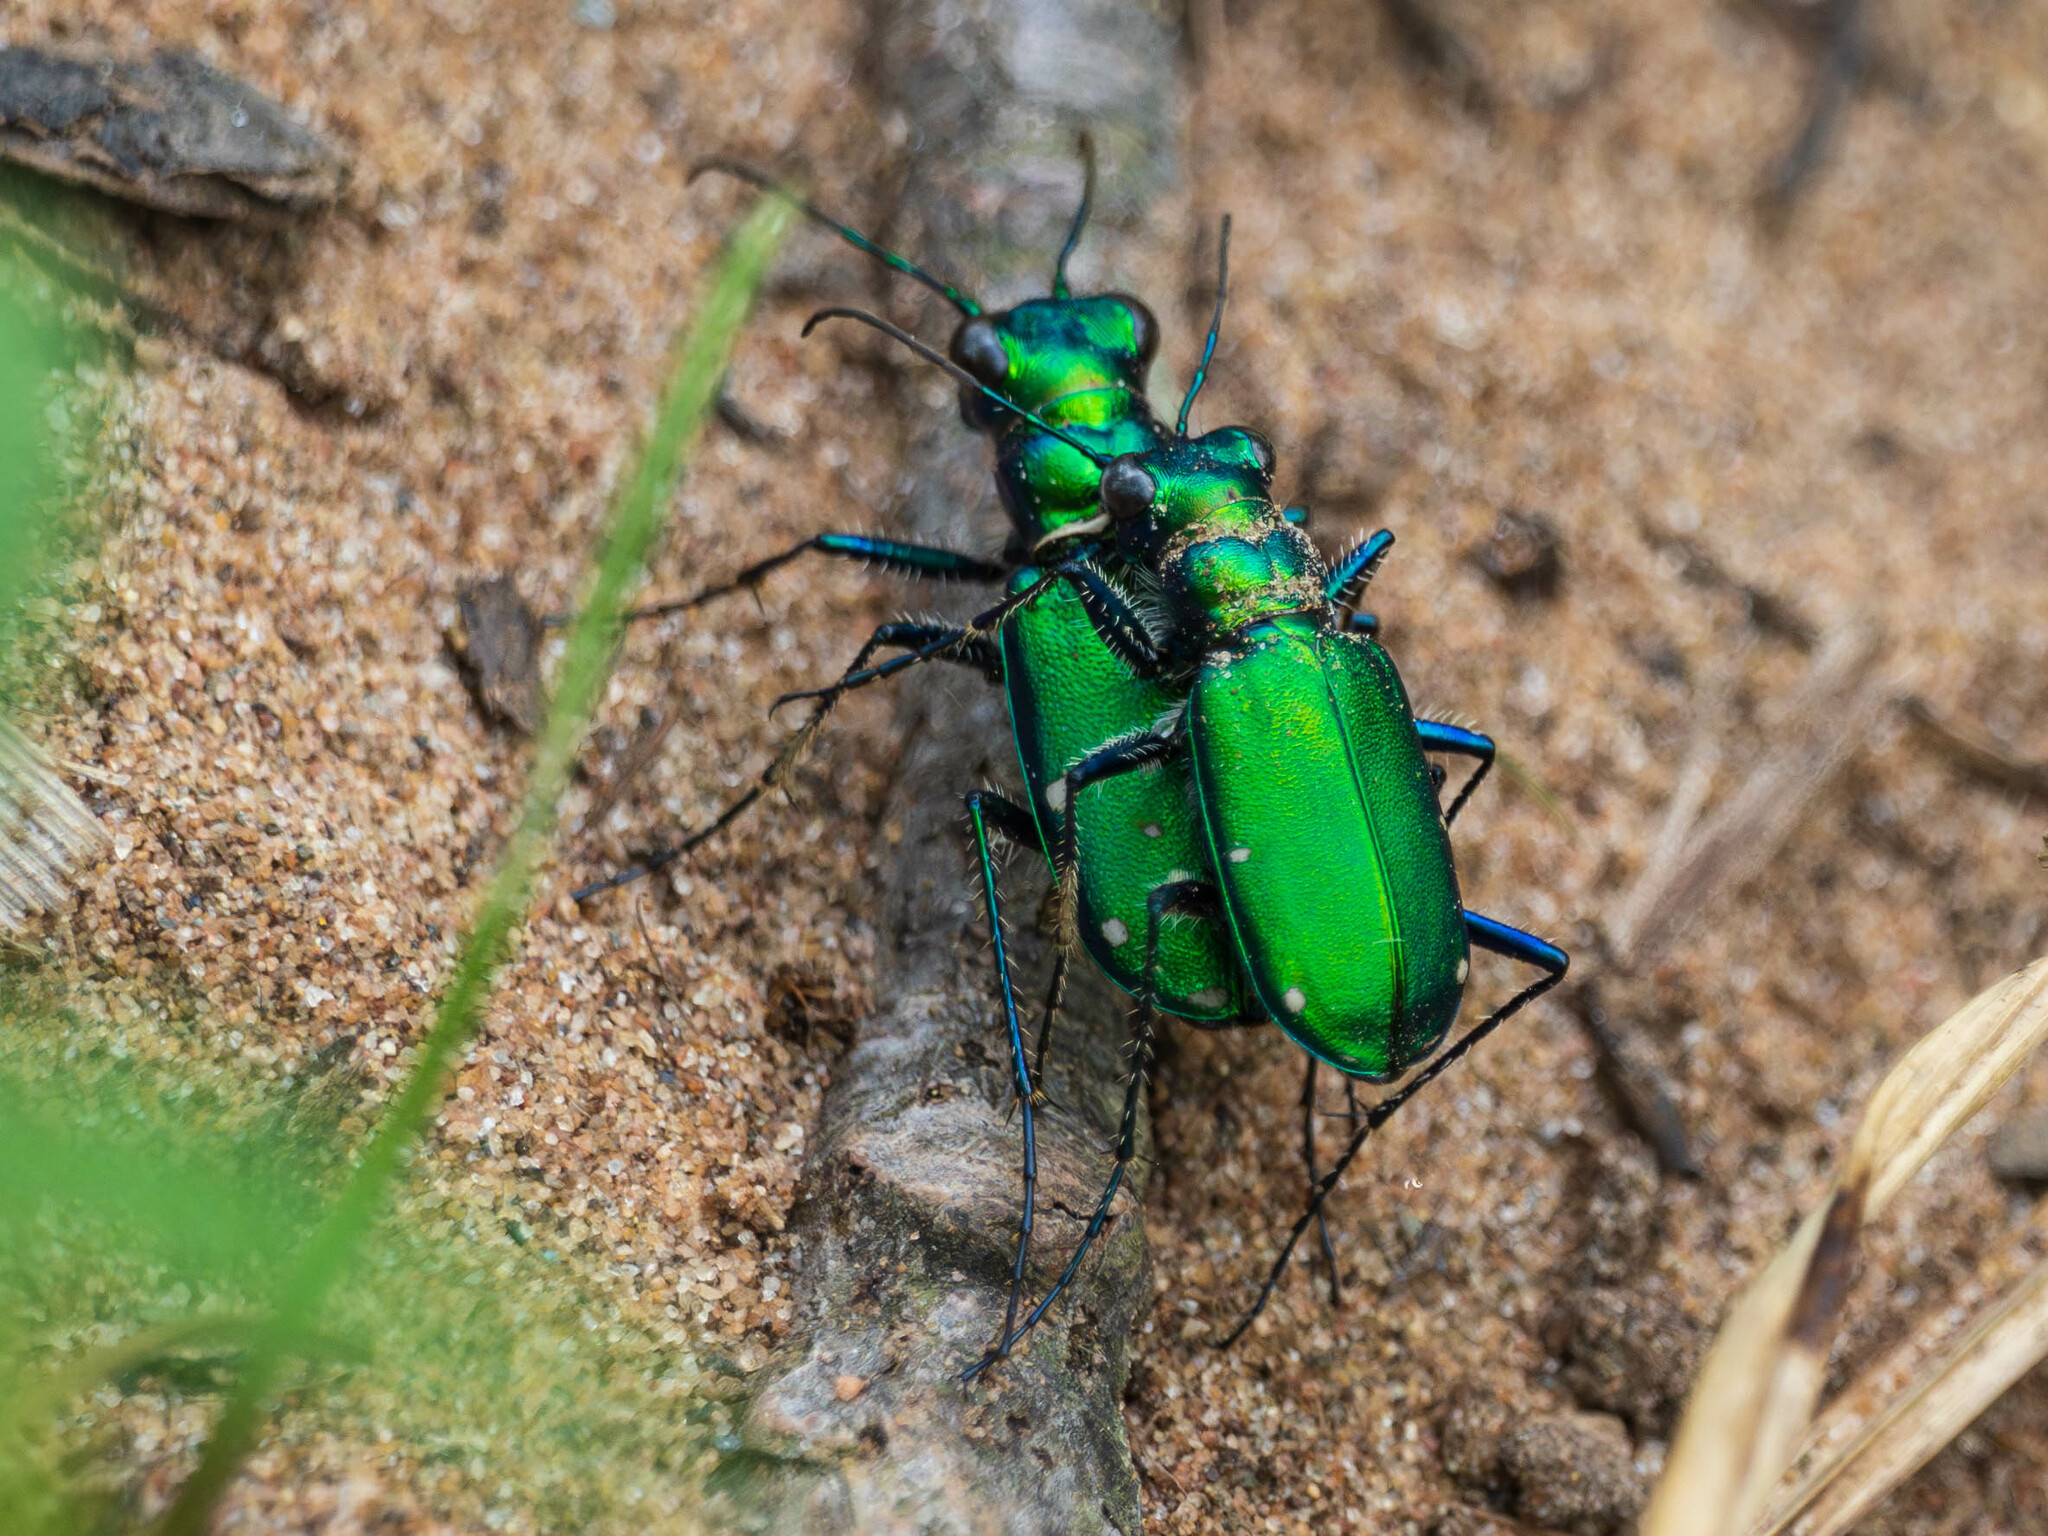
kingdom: Animalia
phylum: Arthropoda
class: Insecta
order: Coleoptera
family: Carabidae
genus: Cicindela
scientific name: Cicindela sexguttata
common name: Six-spotted tiger beetle
